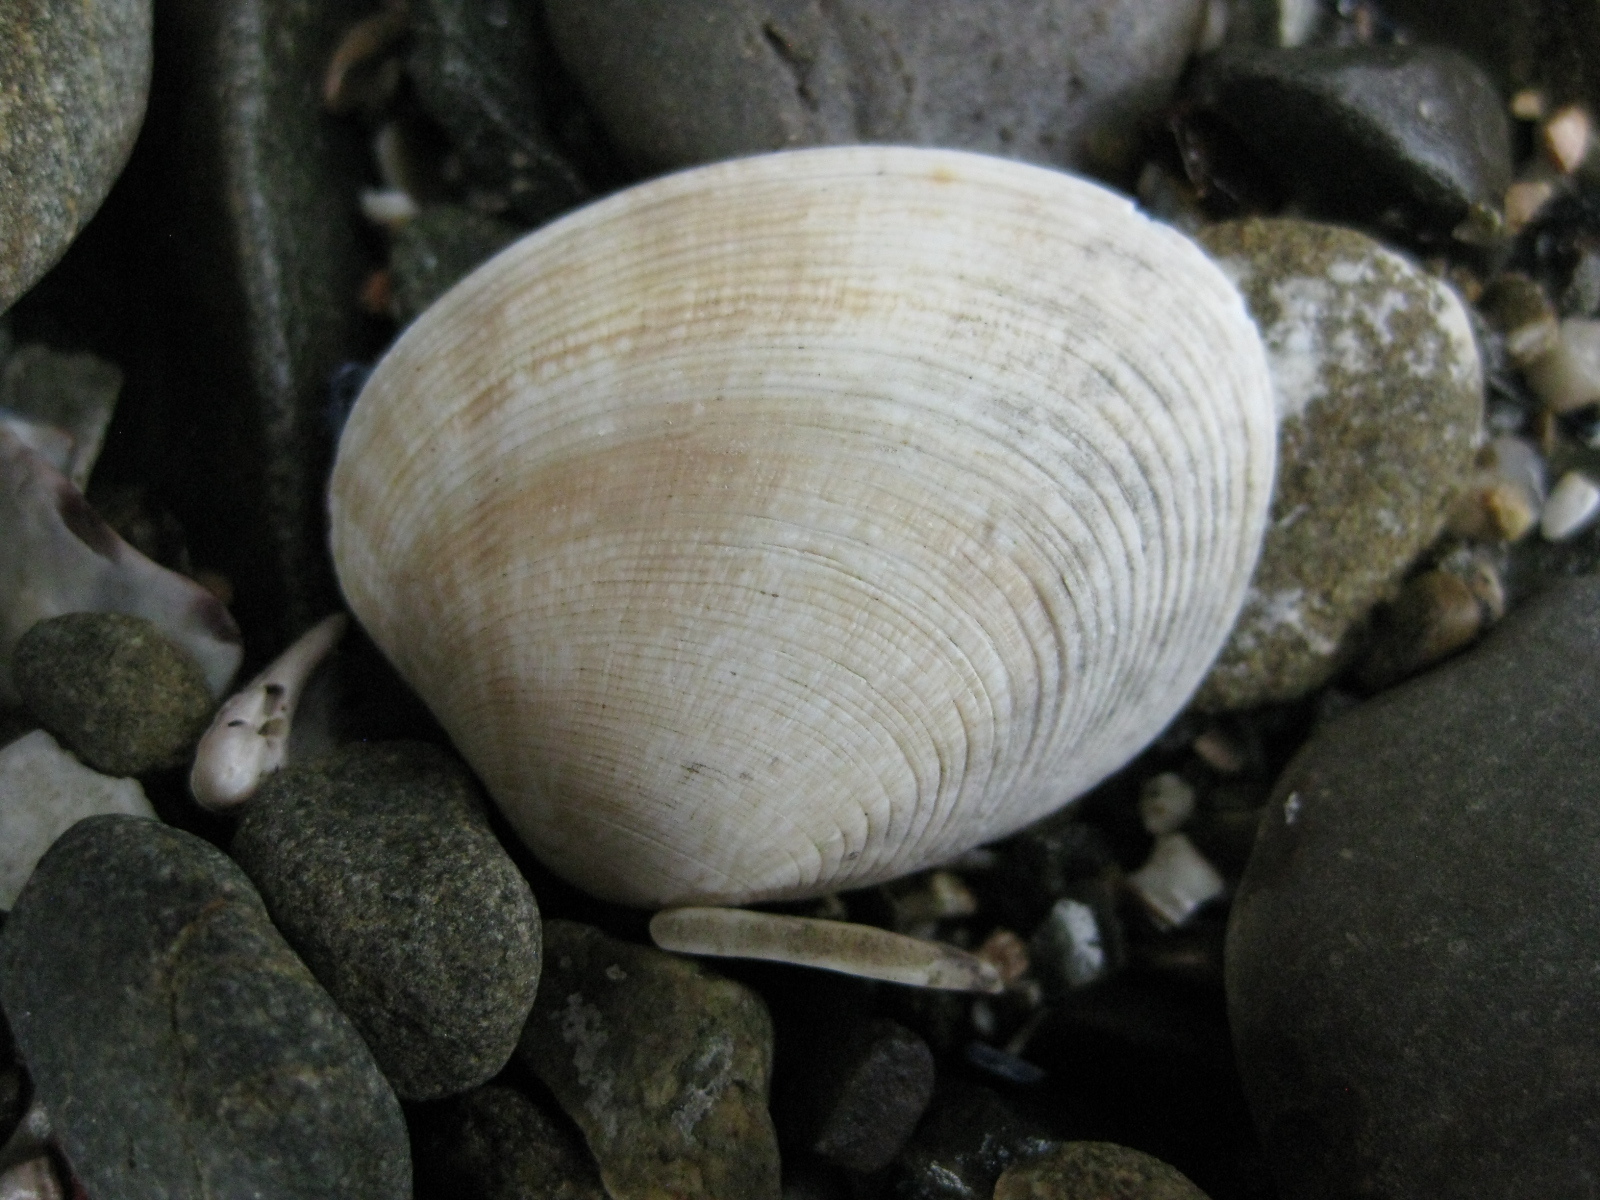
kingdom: Animalia
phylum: Mollusca
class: Bivalvia
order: Venerida
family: Veneridae
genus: Venerupis
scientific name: Venerupis largillierti
